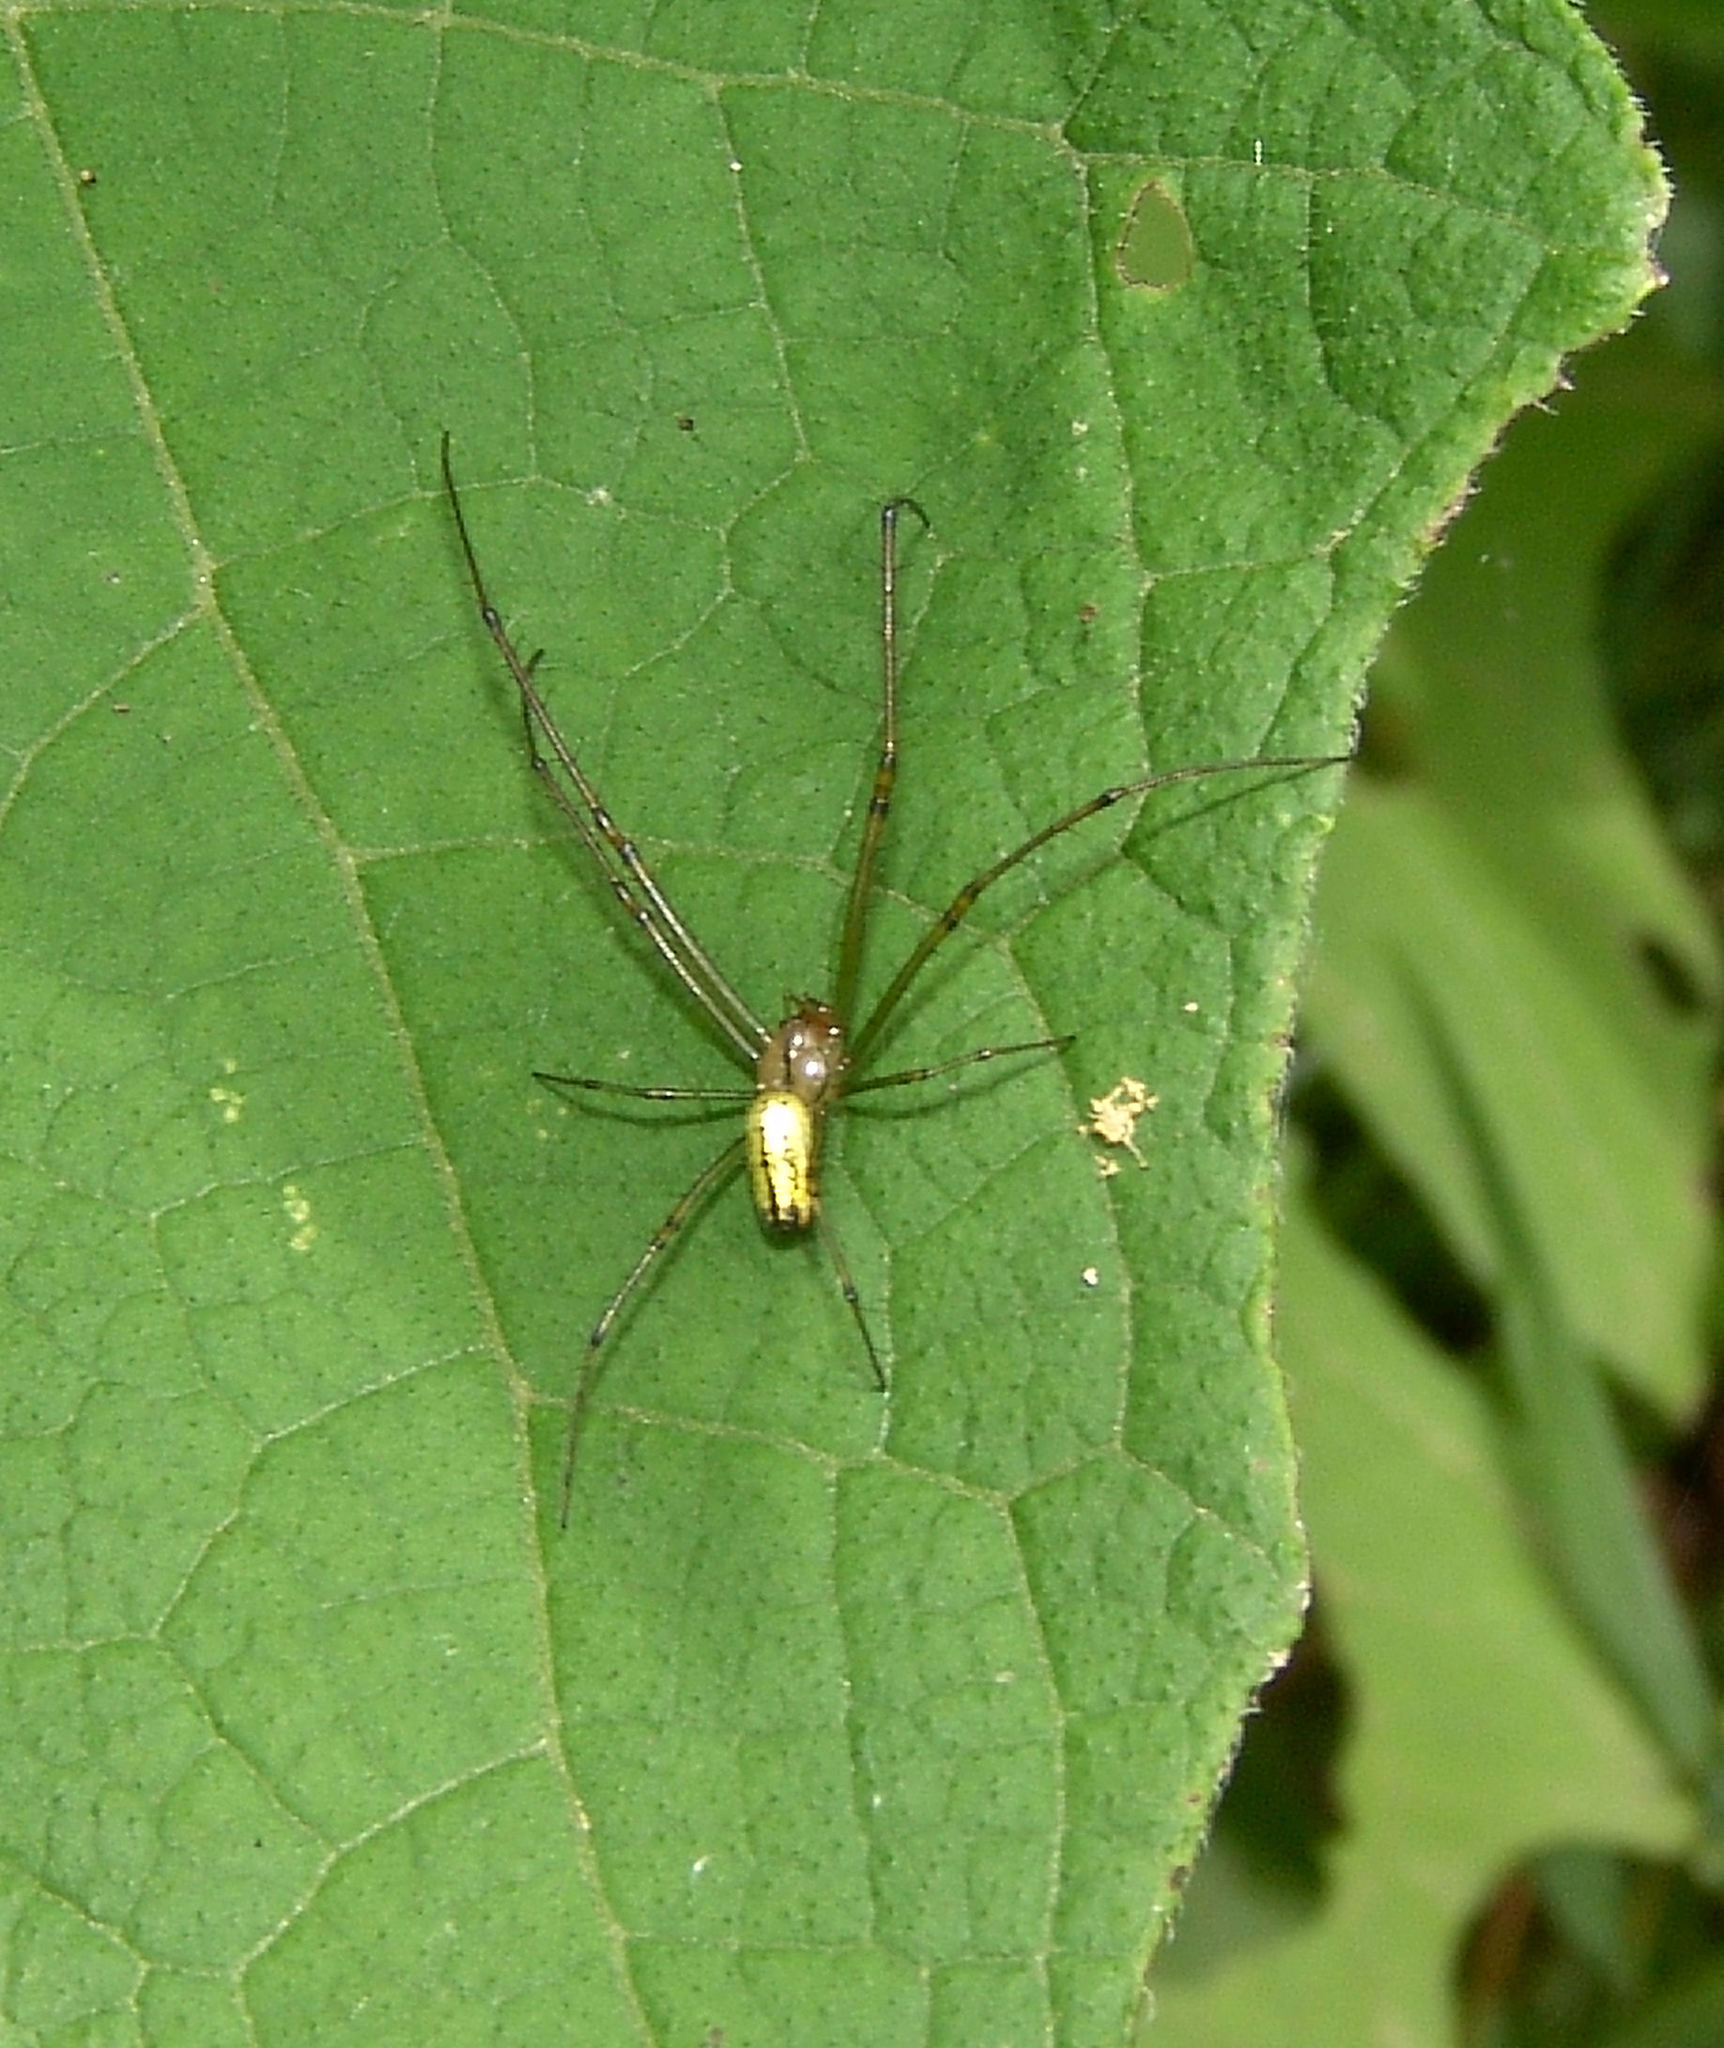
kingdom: Animalia
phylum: Arthropoda
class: Arachnida
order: Araneae
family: Tetragnathidae
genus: Leucauge
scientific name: Leucauge venusta
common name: Longjawed orb weavers
